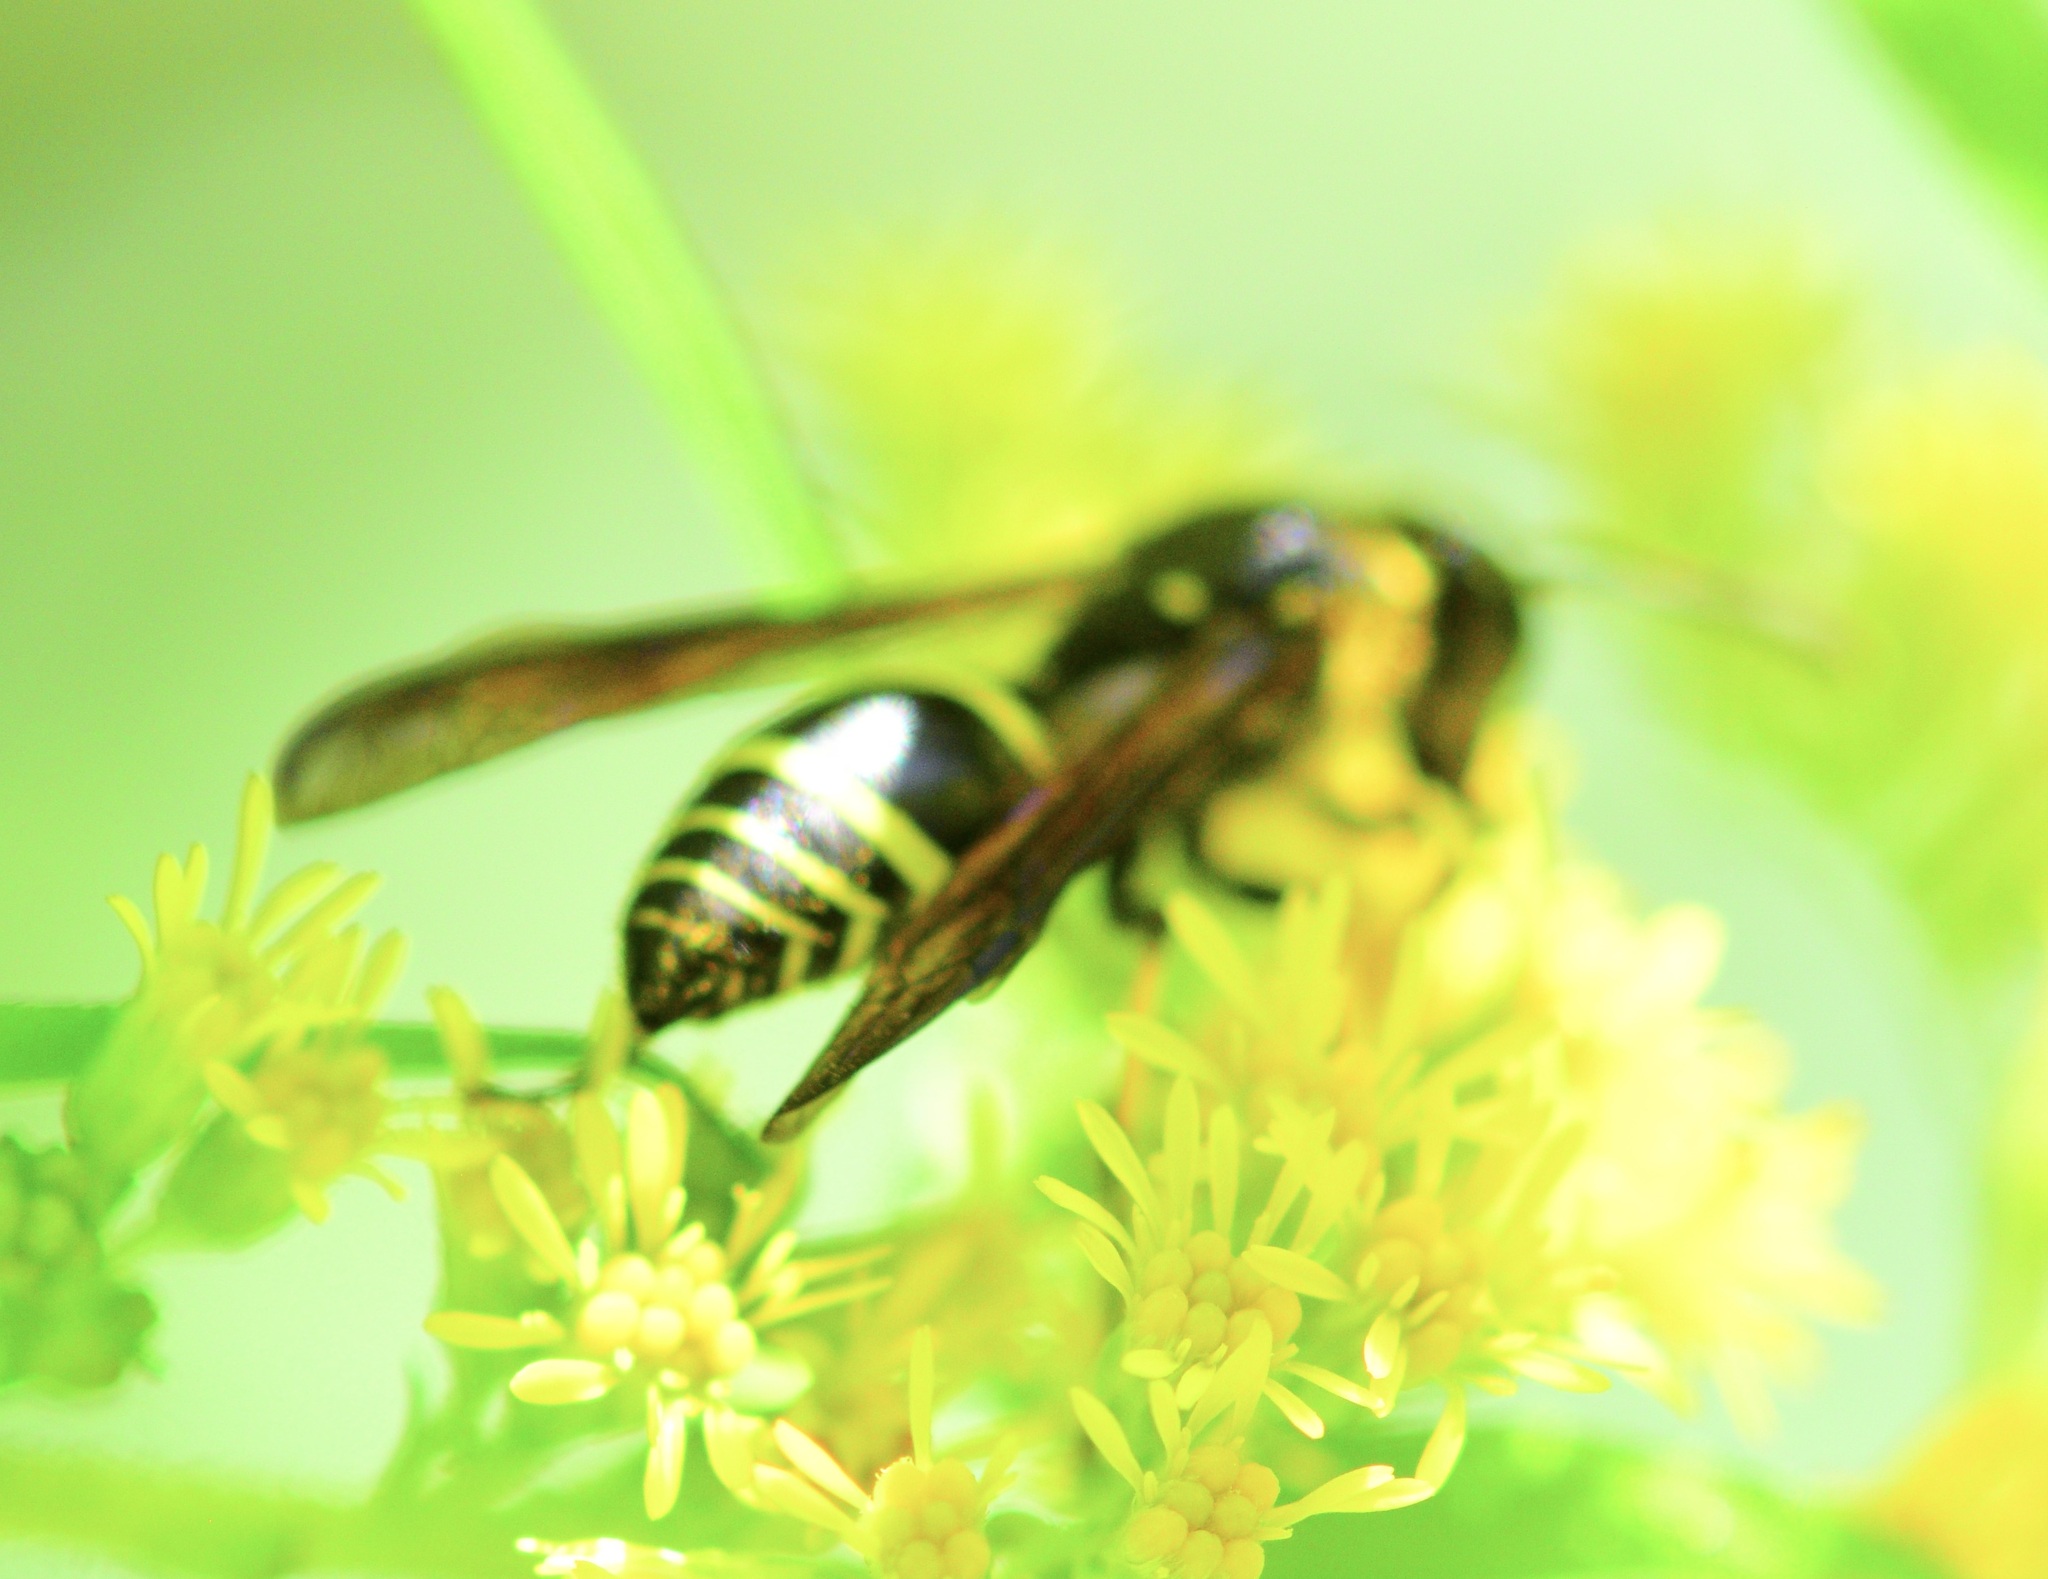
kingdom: Animalia
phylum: Arthropoda
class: Insecta
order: Hymenoptera
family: Vespidae
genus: Ancistrocerus
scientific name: Ancistrocerus
